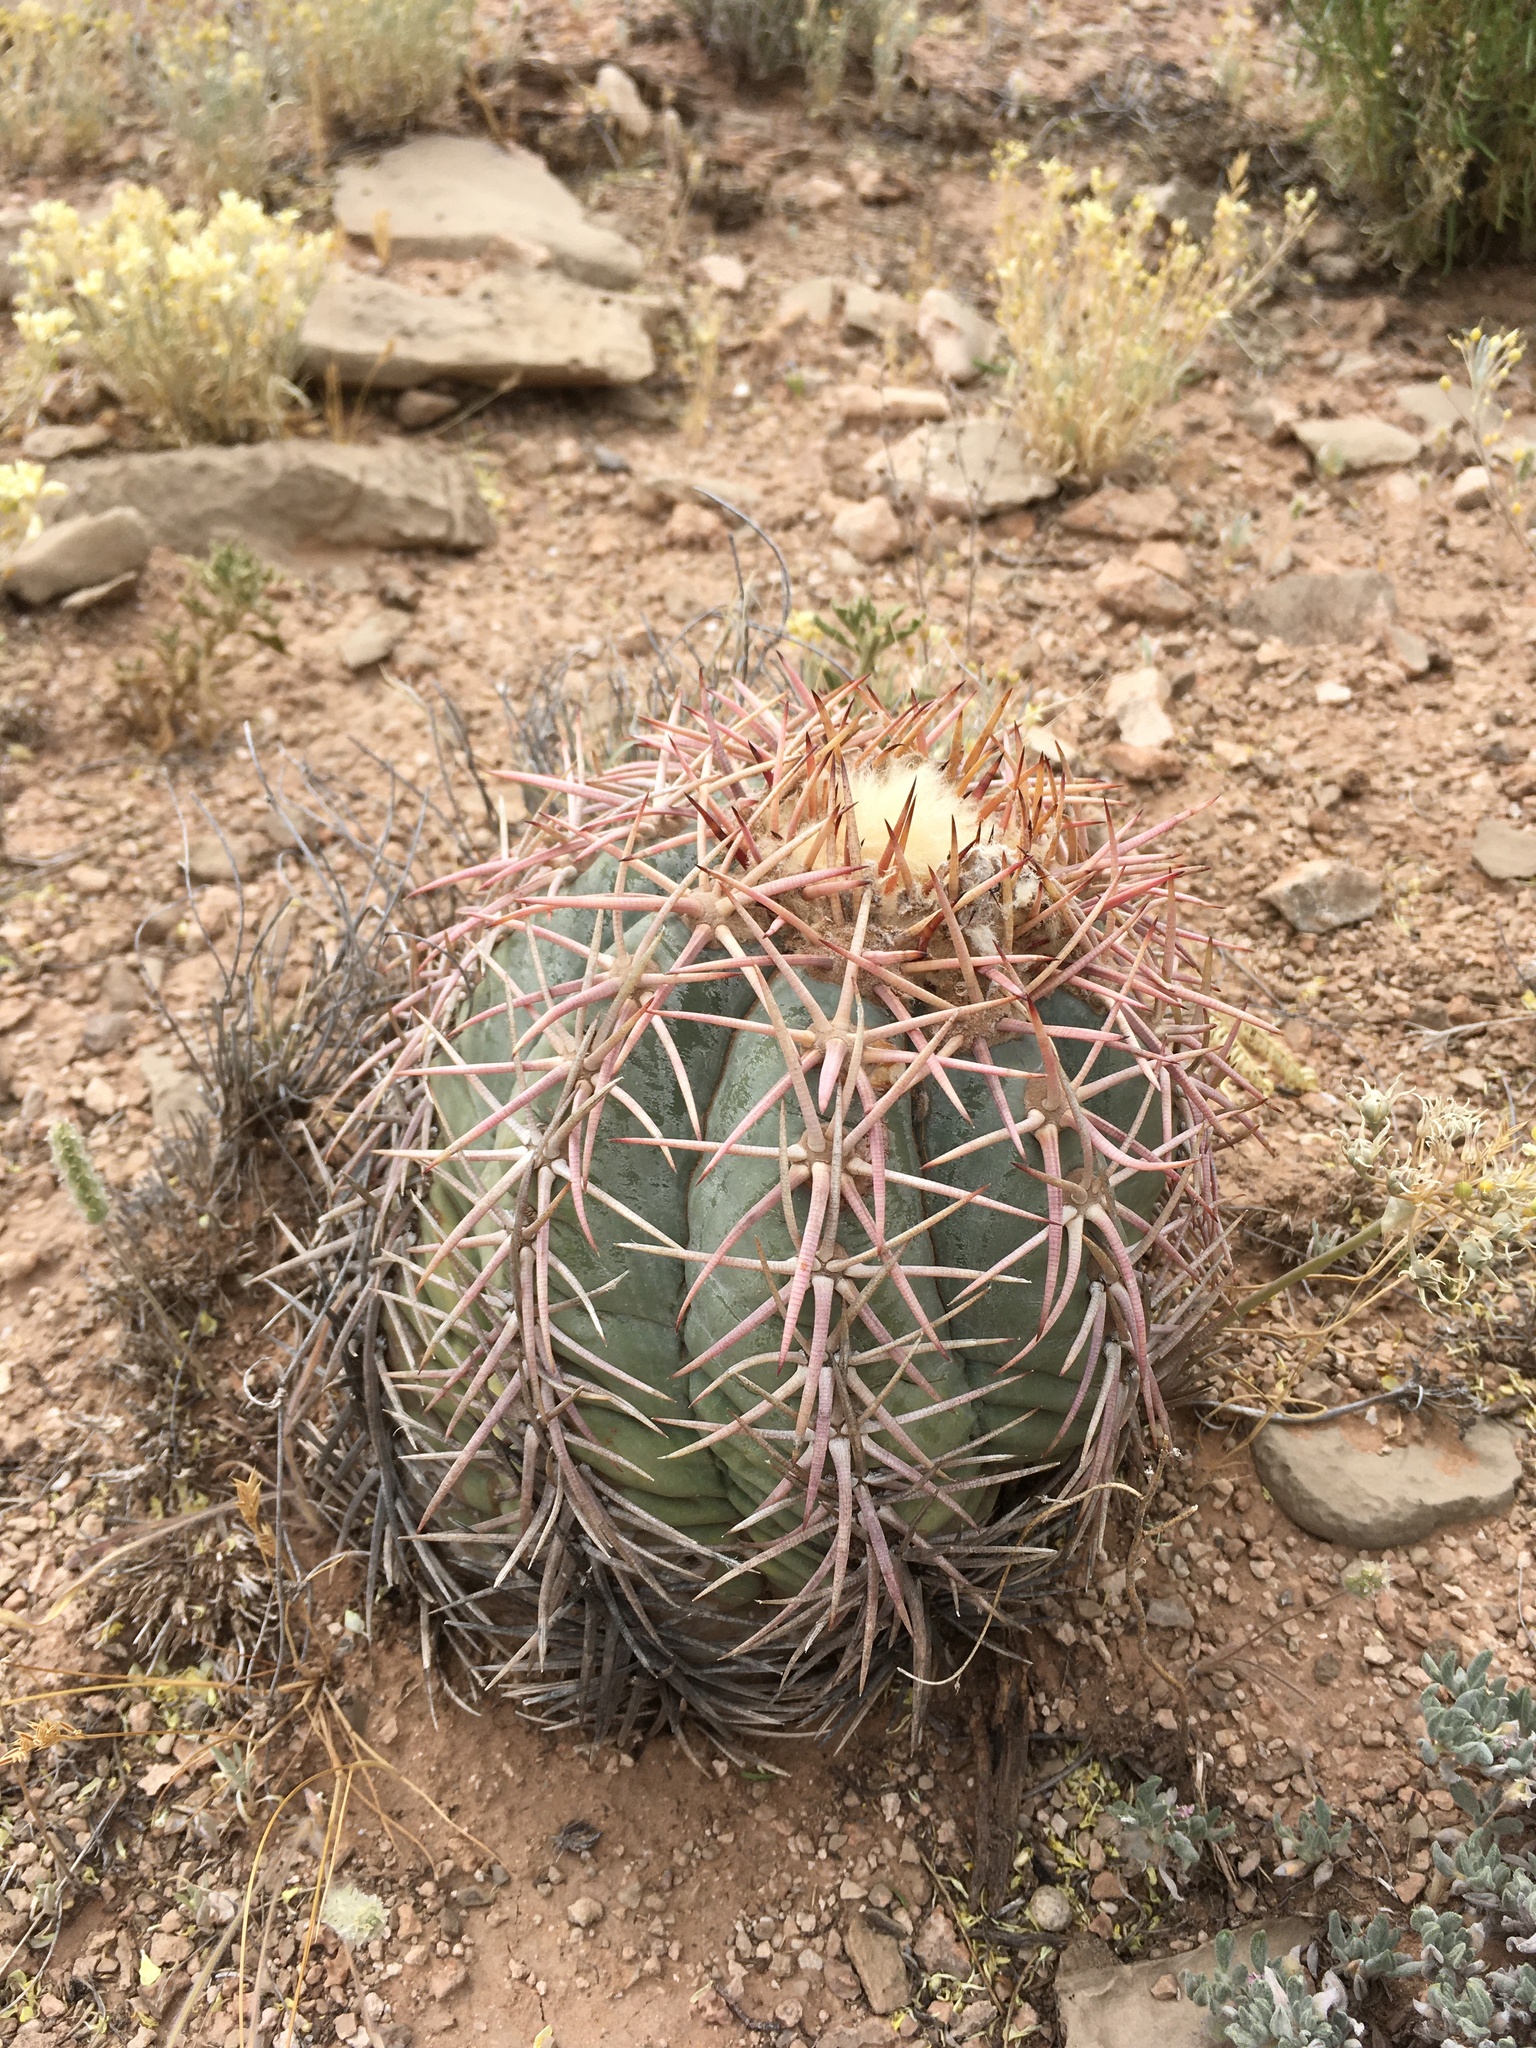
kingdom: Plantae
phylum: Tracheophyta
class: Magnoliopsida
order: Caryophyllales
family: Cactaceae
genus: Echinocactus
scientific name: Echinocactus horizonthalonius
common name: Devilshead
